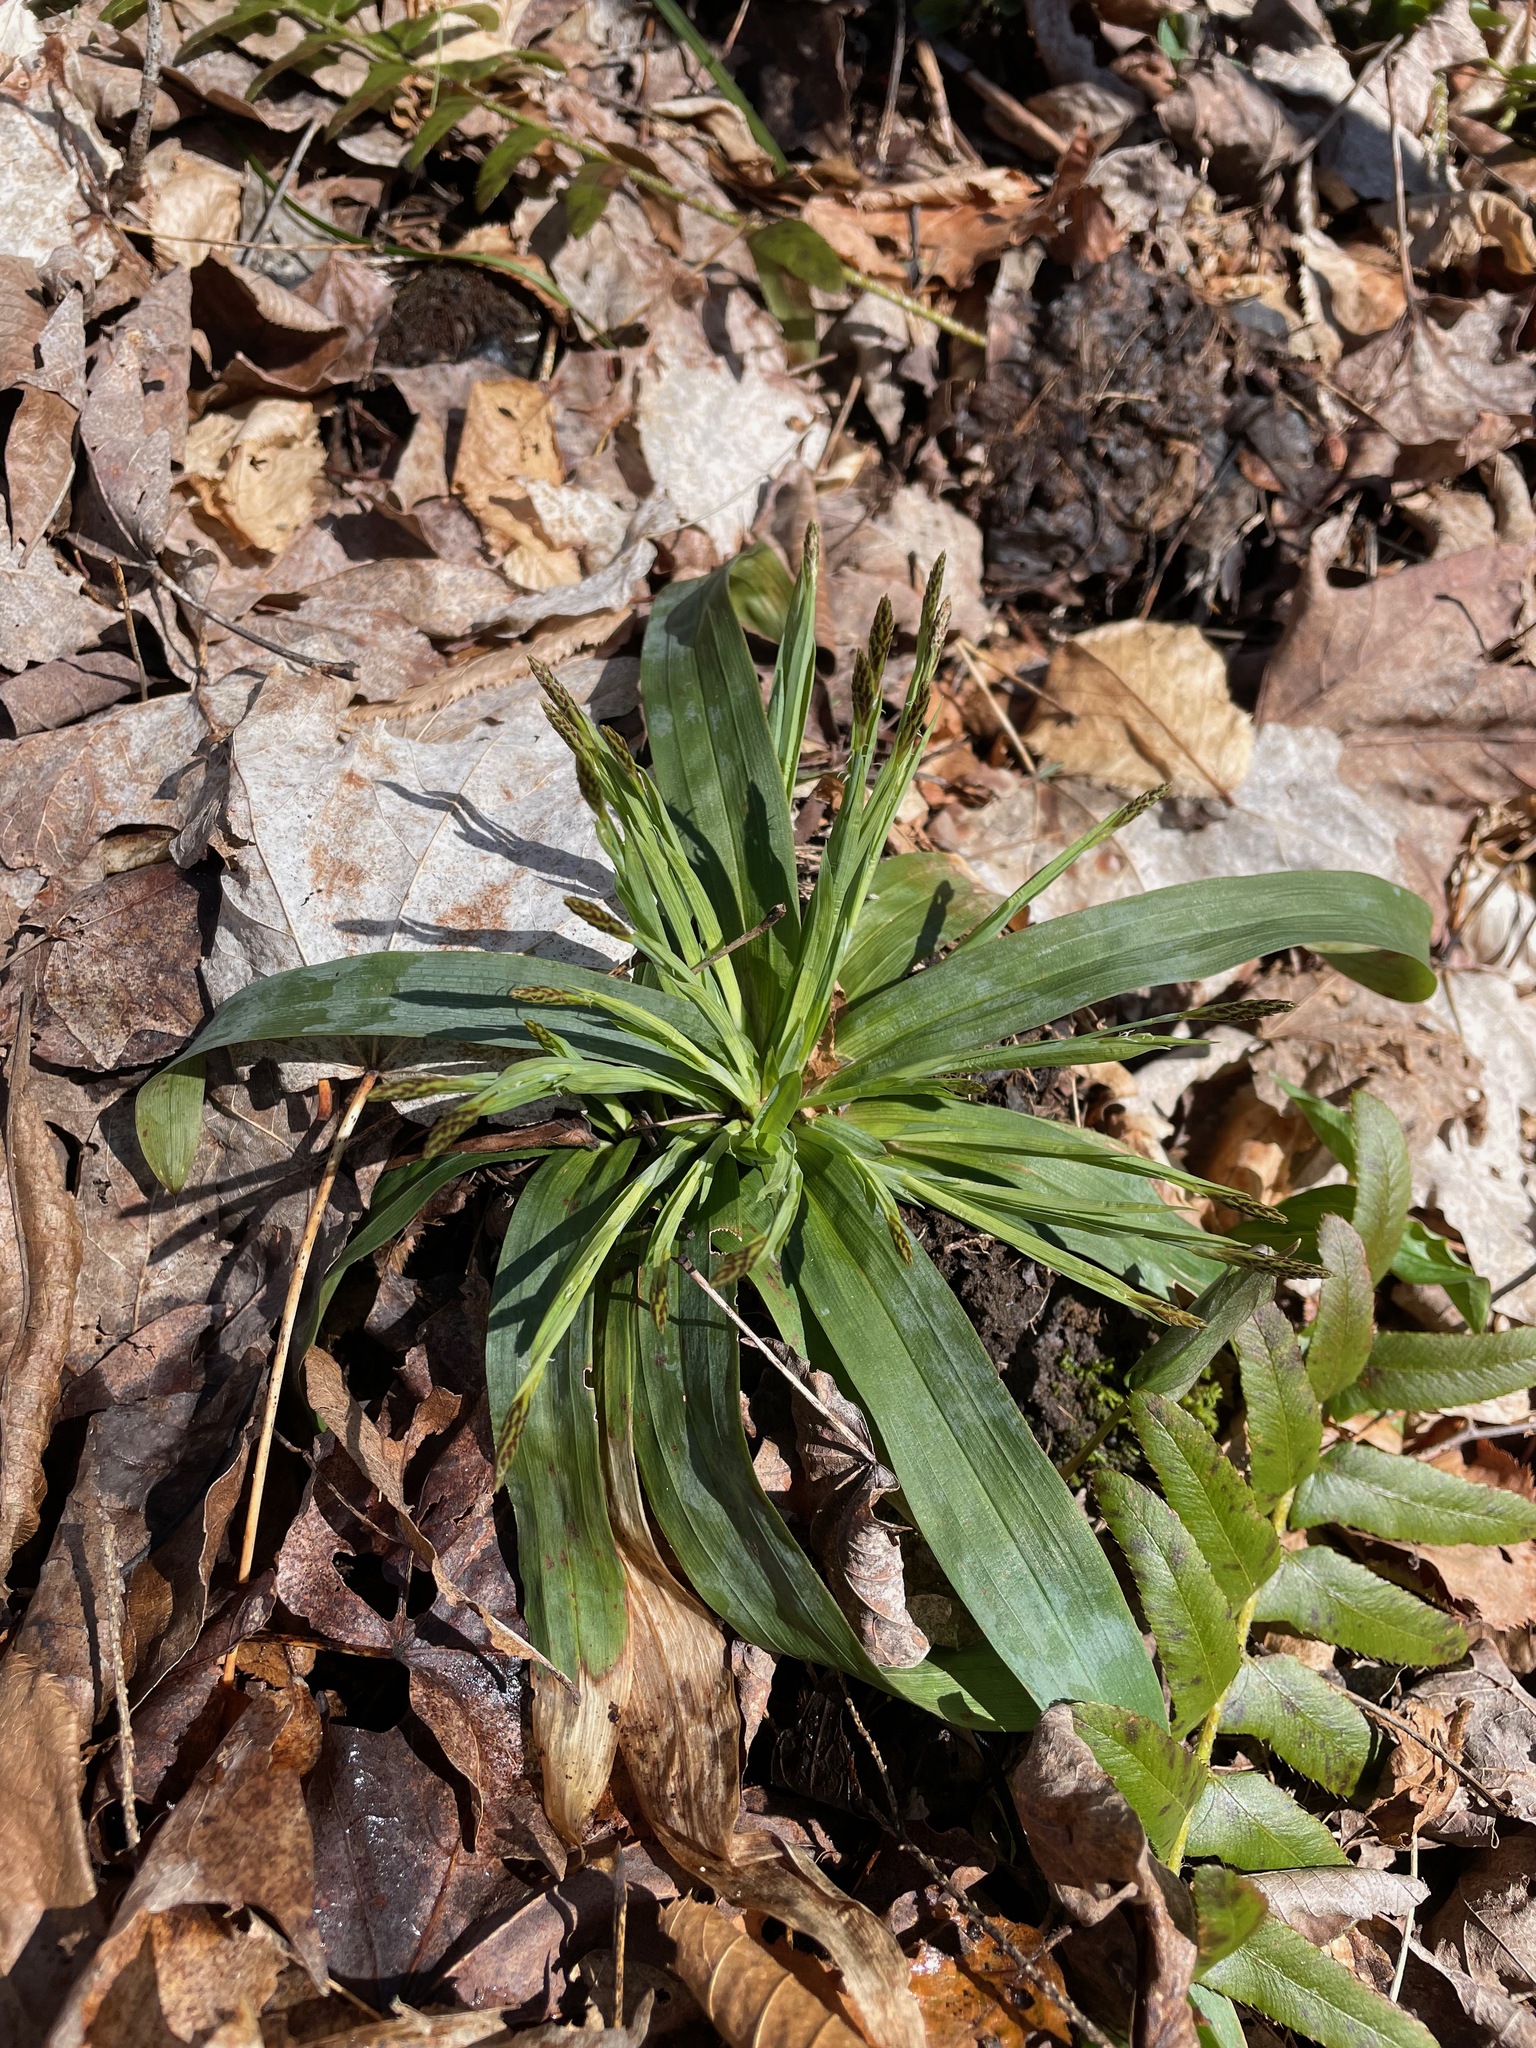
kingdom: Plantae
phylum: Tracheophyta
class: Liliopsida
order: Poales
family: Cyperaceae
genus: Carex
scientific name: Carex platyphylla
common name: Broad-leaved sedge
